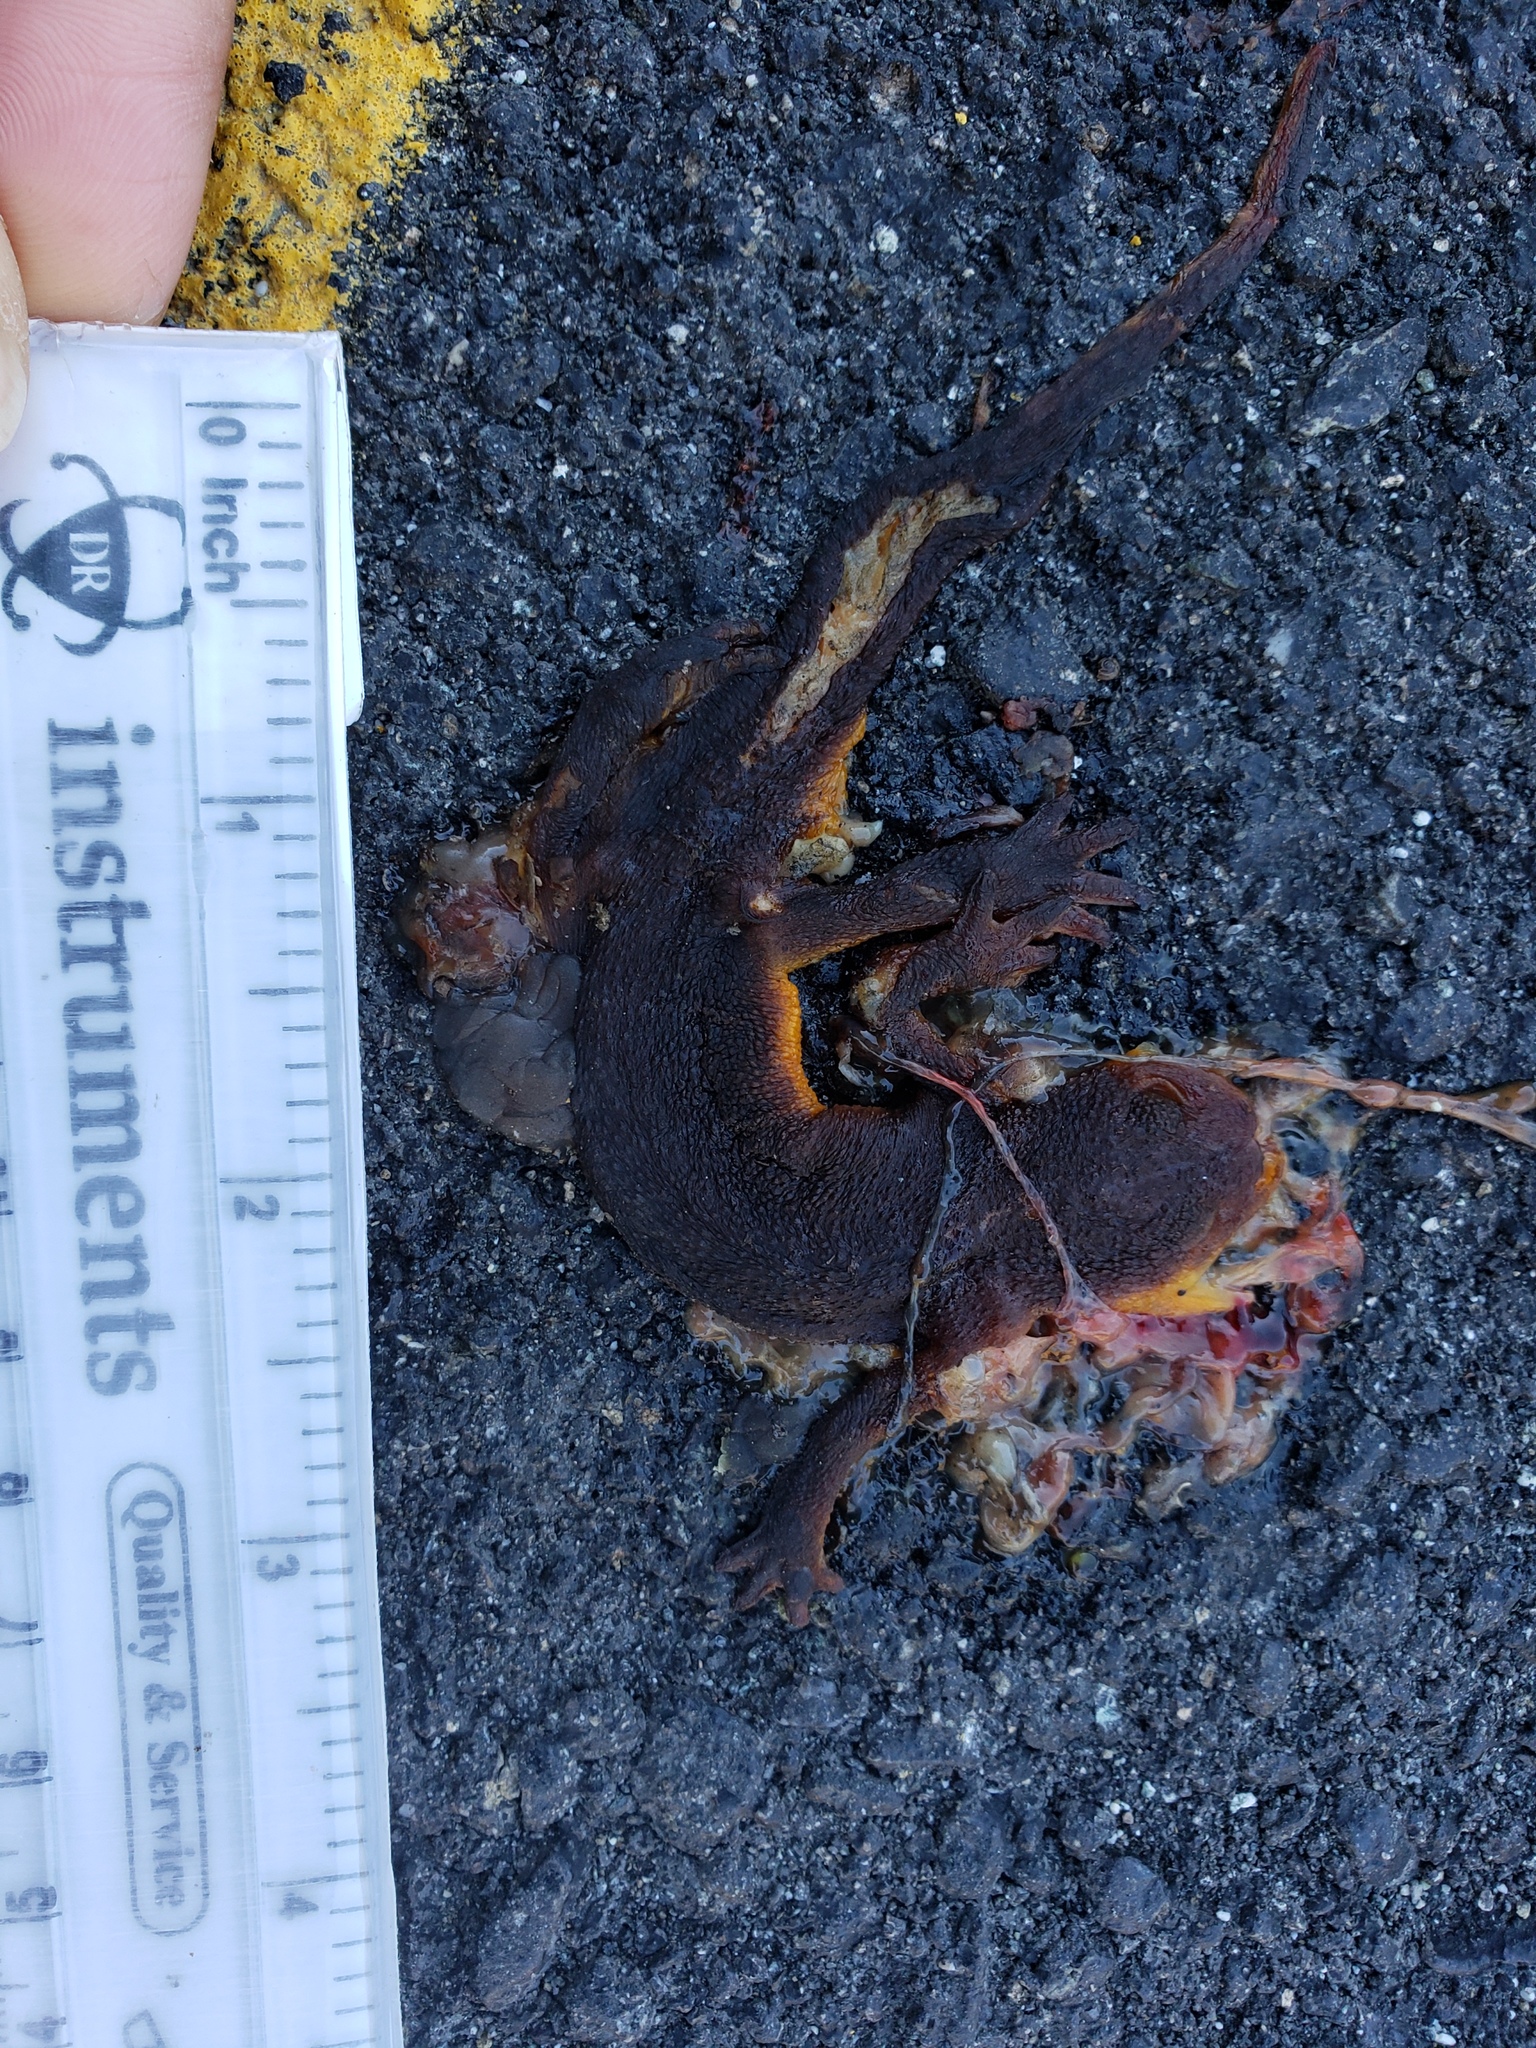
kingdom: Animalia
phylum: Chordata
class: Amphibia
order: Caudata
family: Salamandridae
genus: Taricha
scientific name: Taricha
